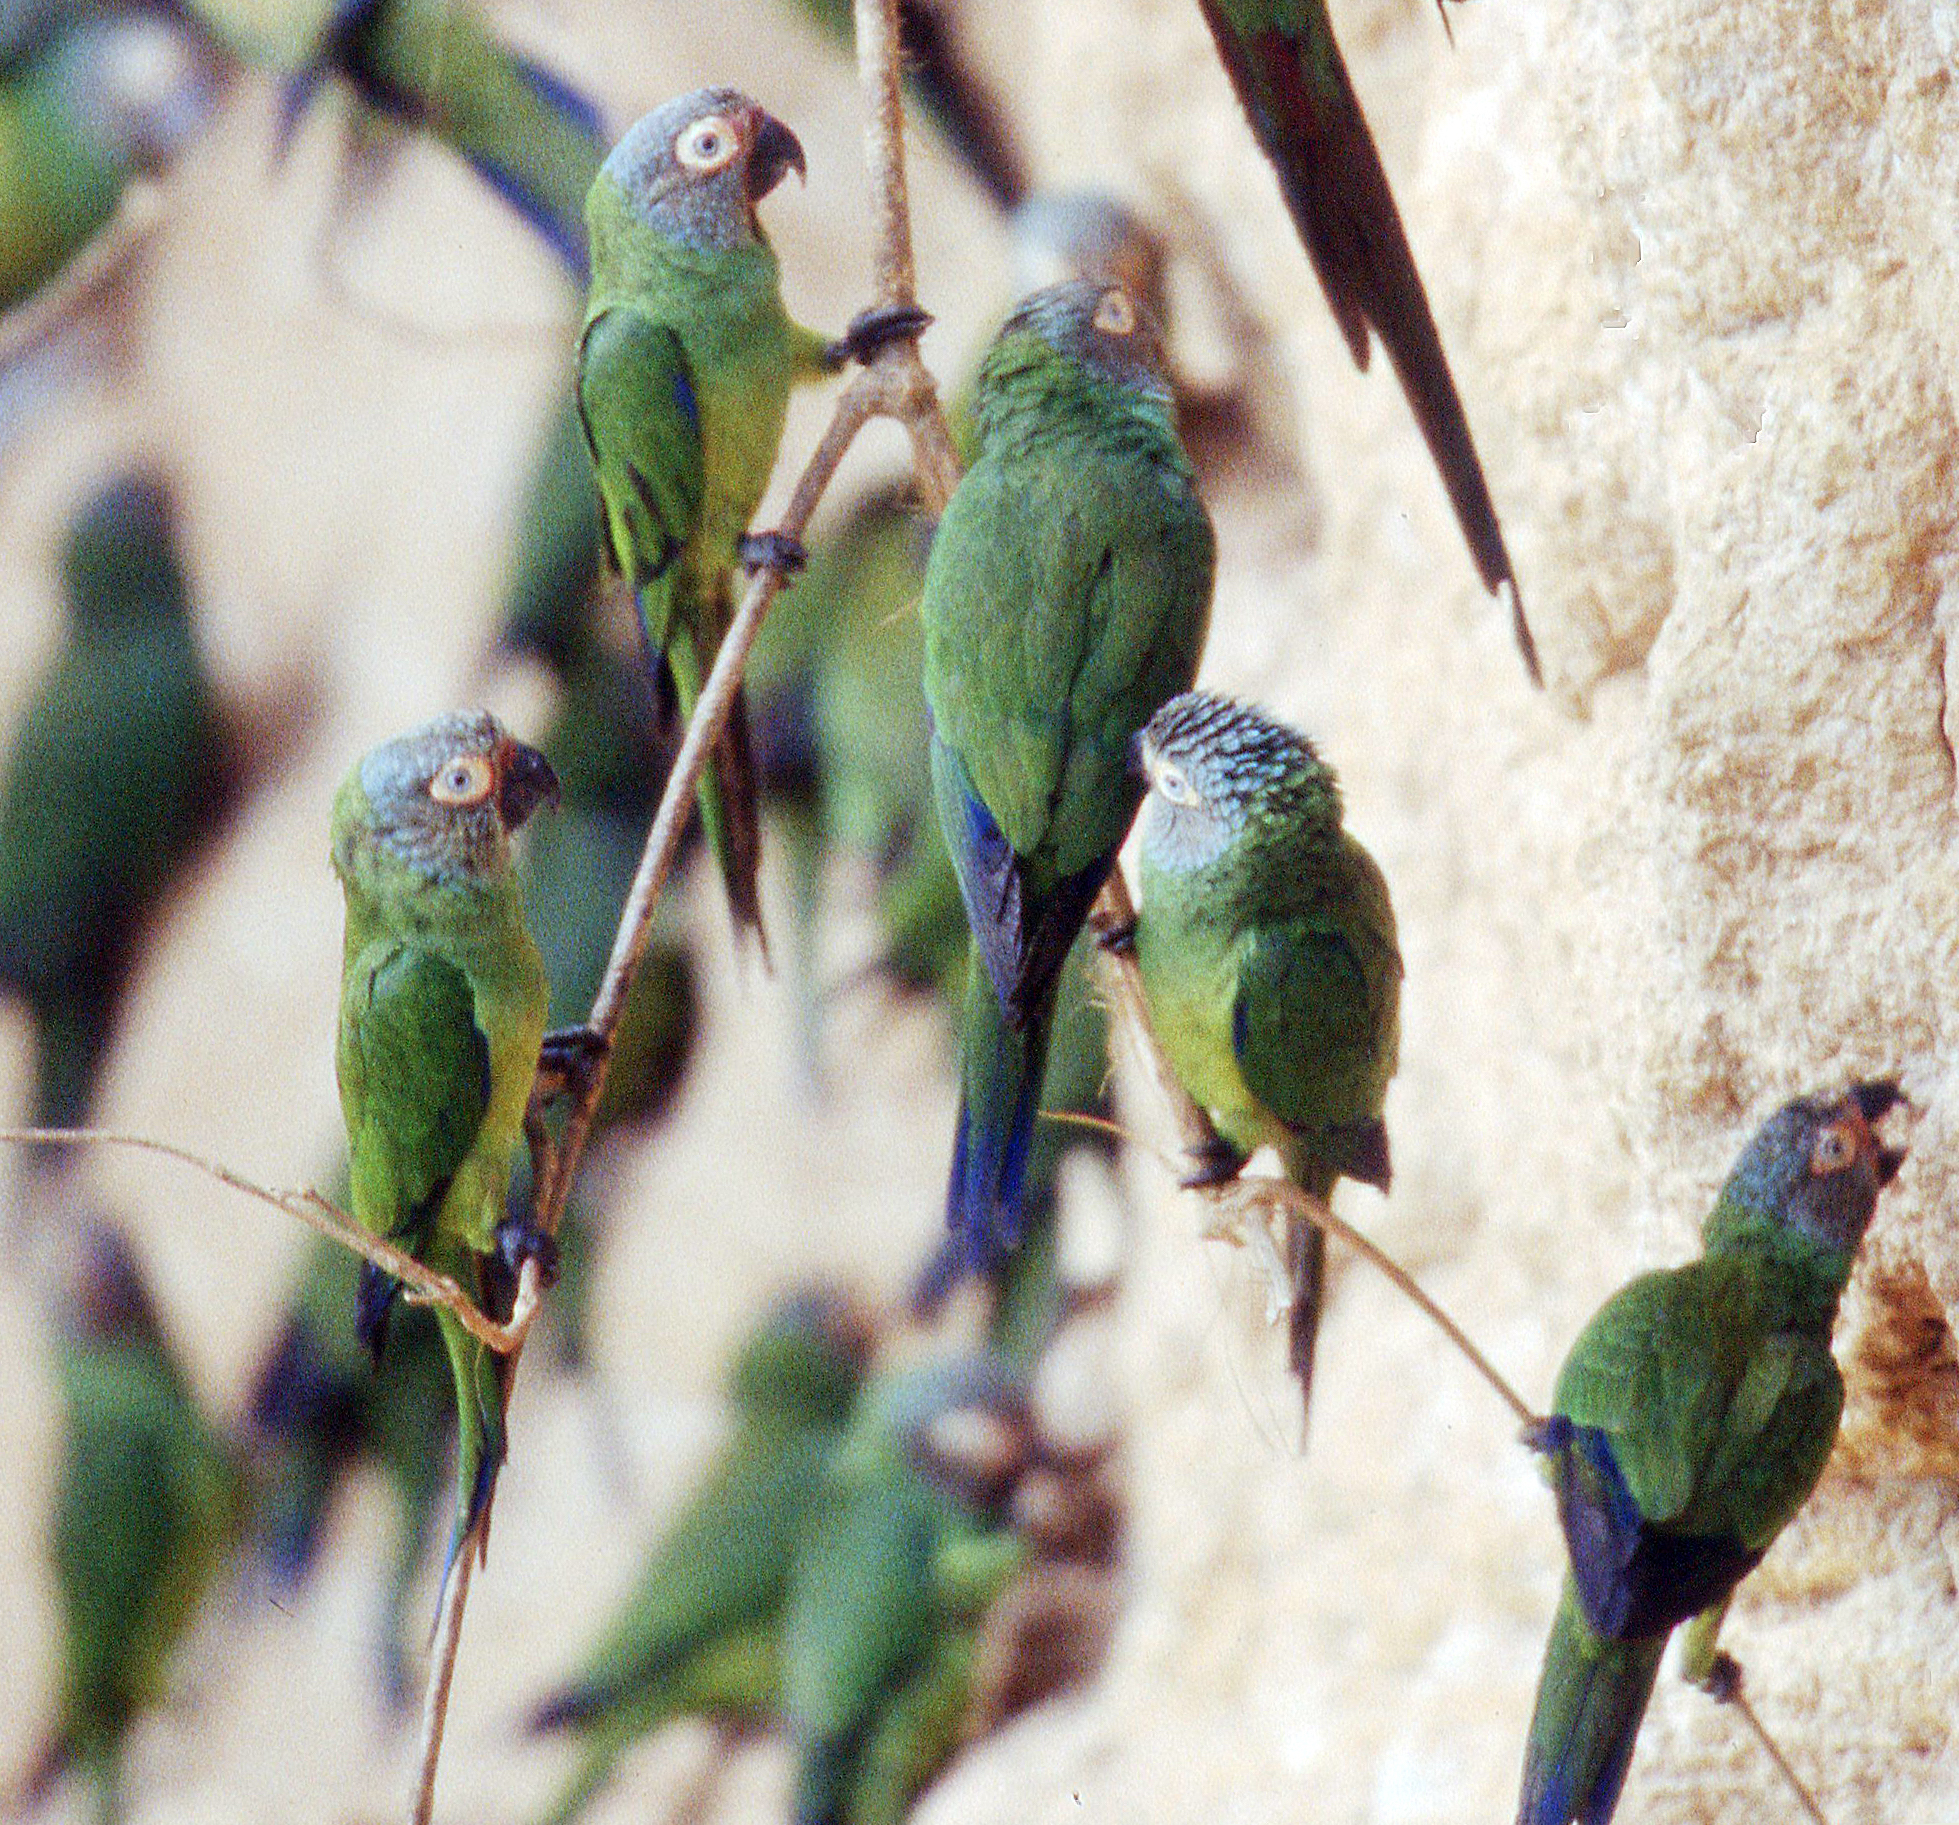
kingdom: Animalia
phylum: Chordata
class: Aves
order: Psittaciformes
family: Psittacidae
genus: Aratinga
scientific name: Aratinga weddellii
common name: Dusky-headed parakeet
